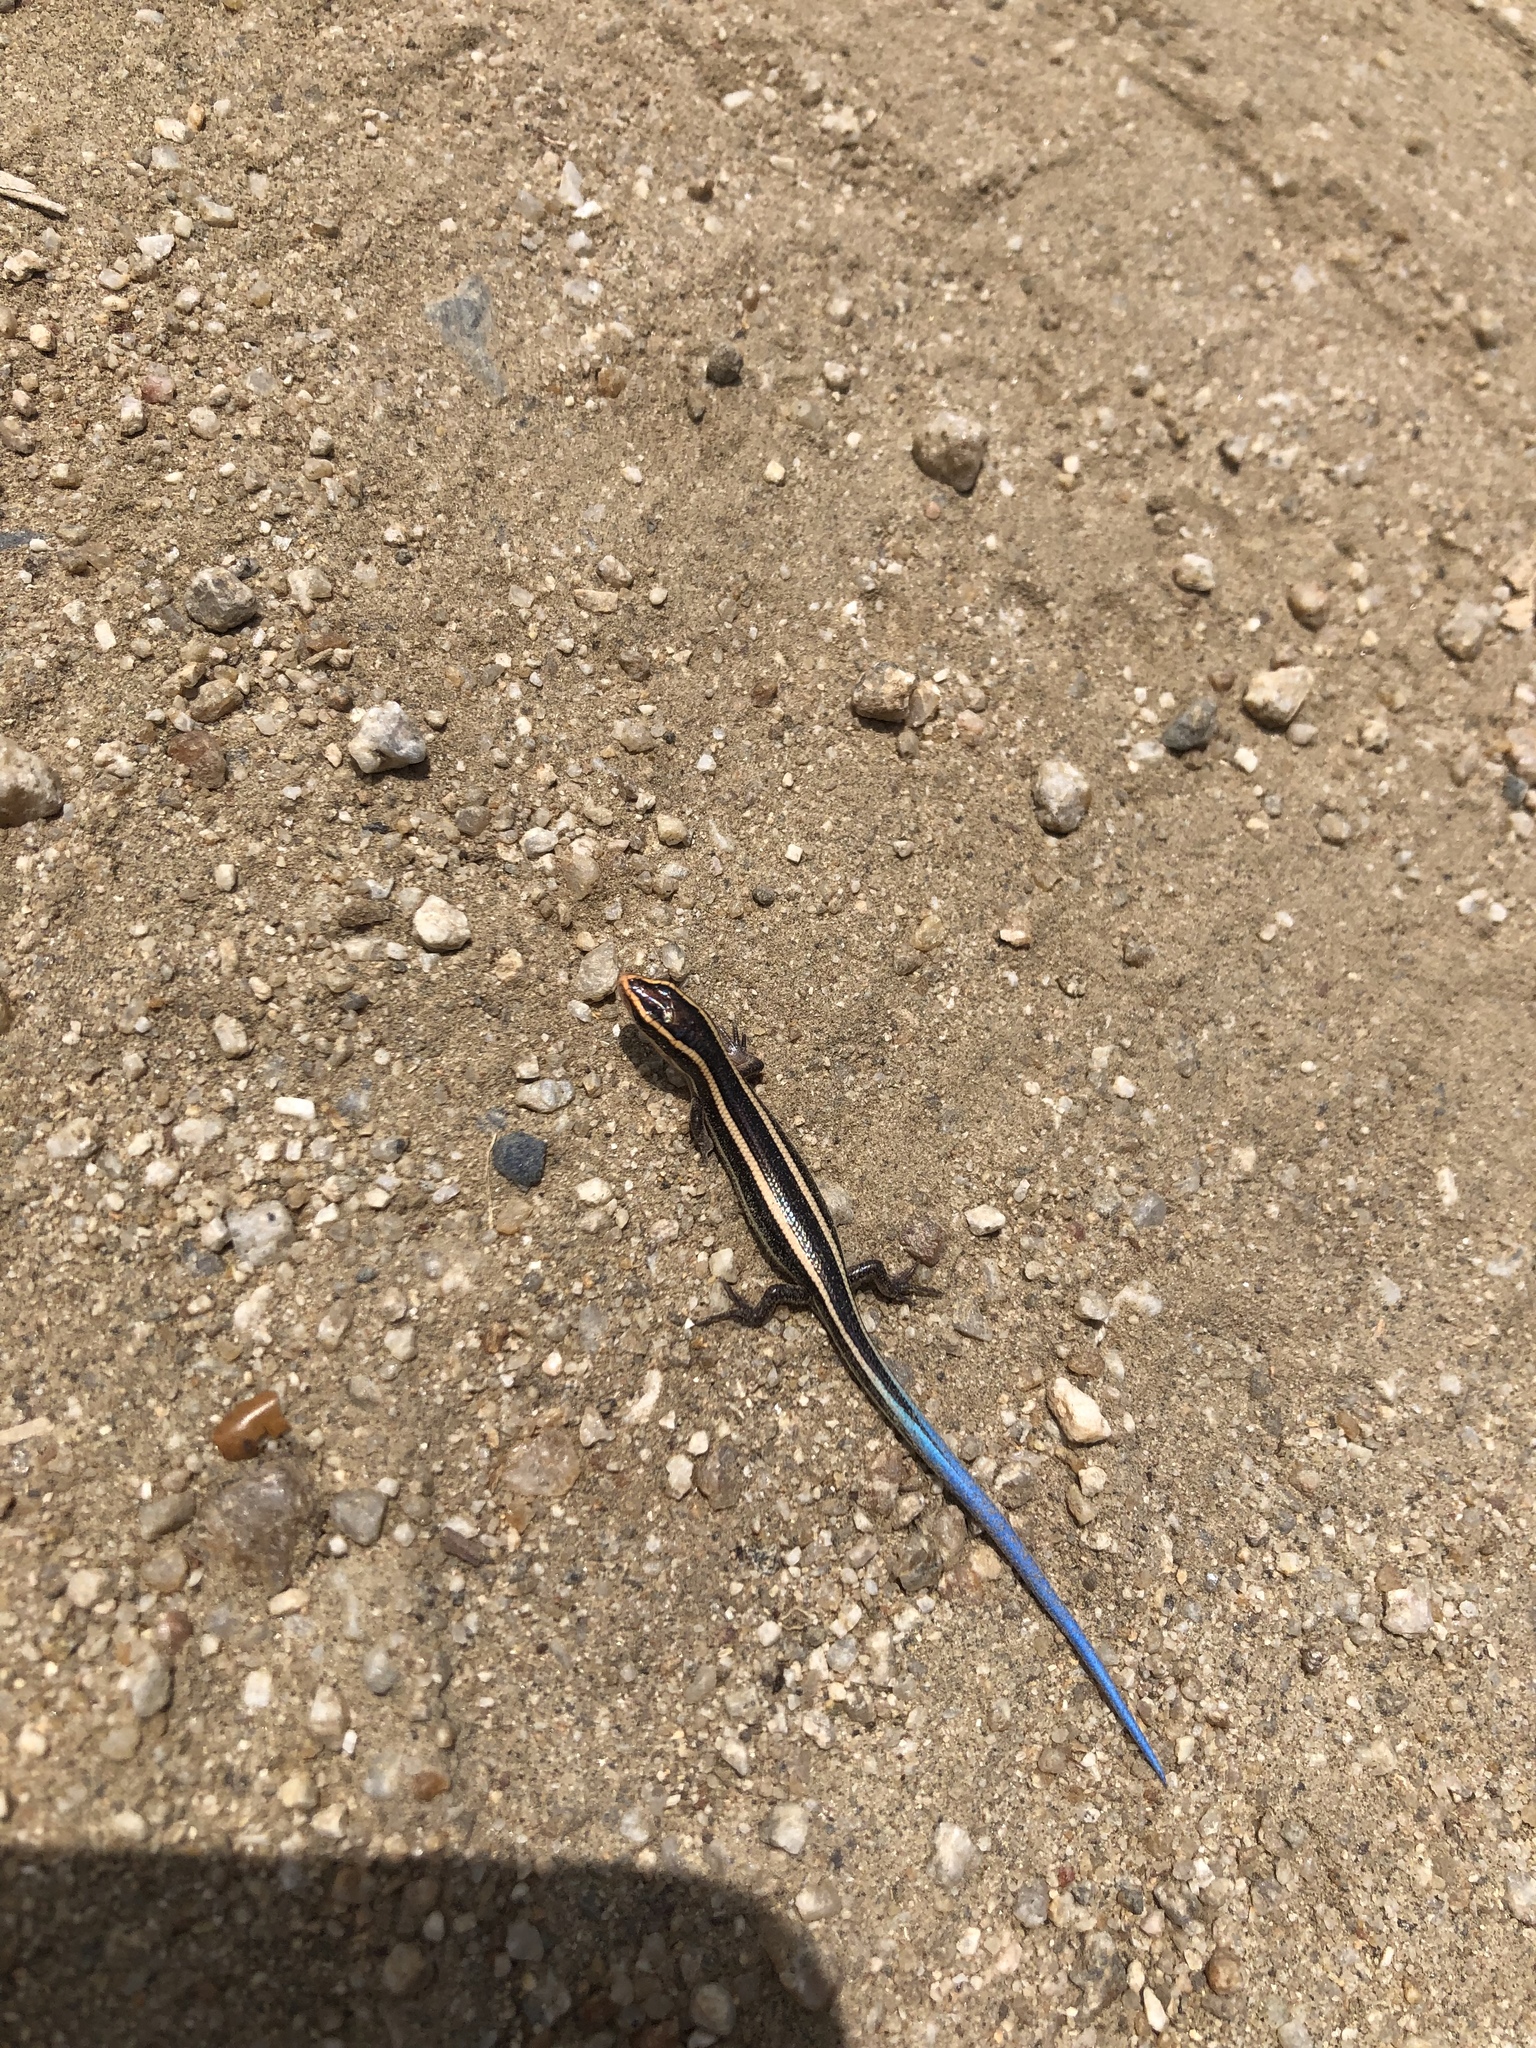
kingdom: Animalia
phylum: Chordata
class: Squamata
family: Scincidae
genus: Plestiodon
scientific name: Plestiodon skiltonianus
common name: Coronado island skink [interparietalis]
